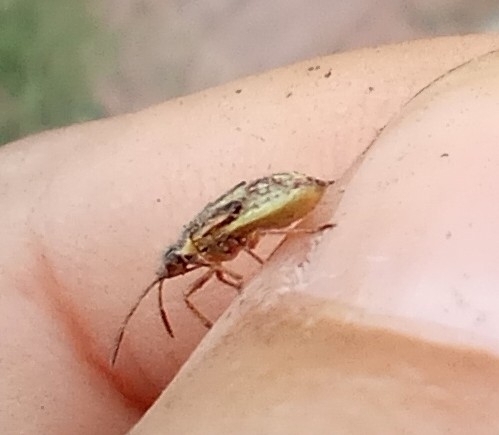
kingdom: Animalia
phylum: Arthropoda
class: Insecta
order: Hemiptera
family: Rhopalidae
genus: Liorhyssus
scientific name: Liorhyssus hyalinus
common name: Scentless plant bug
